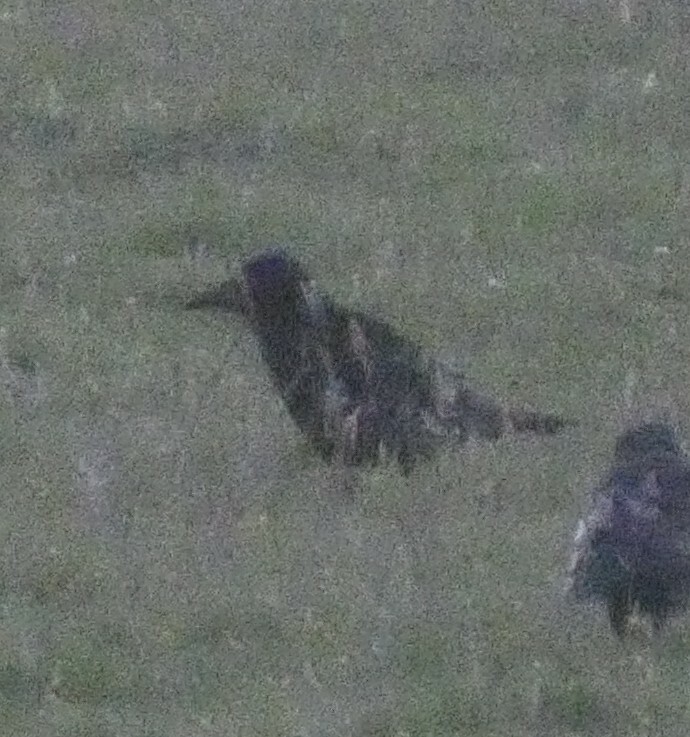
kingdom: Animalia
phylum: Chordata
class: Aves
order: Passeriformes
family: Corvidae
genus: Corvus
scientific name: Corvus frugilegus
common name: Rook
